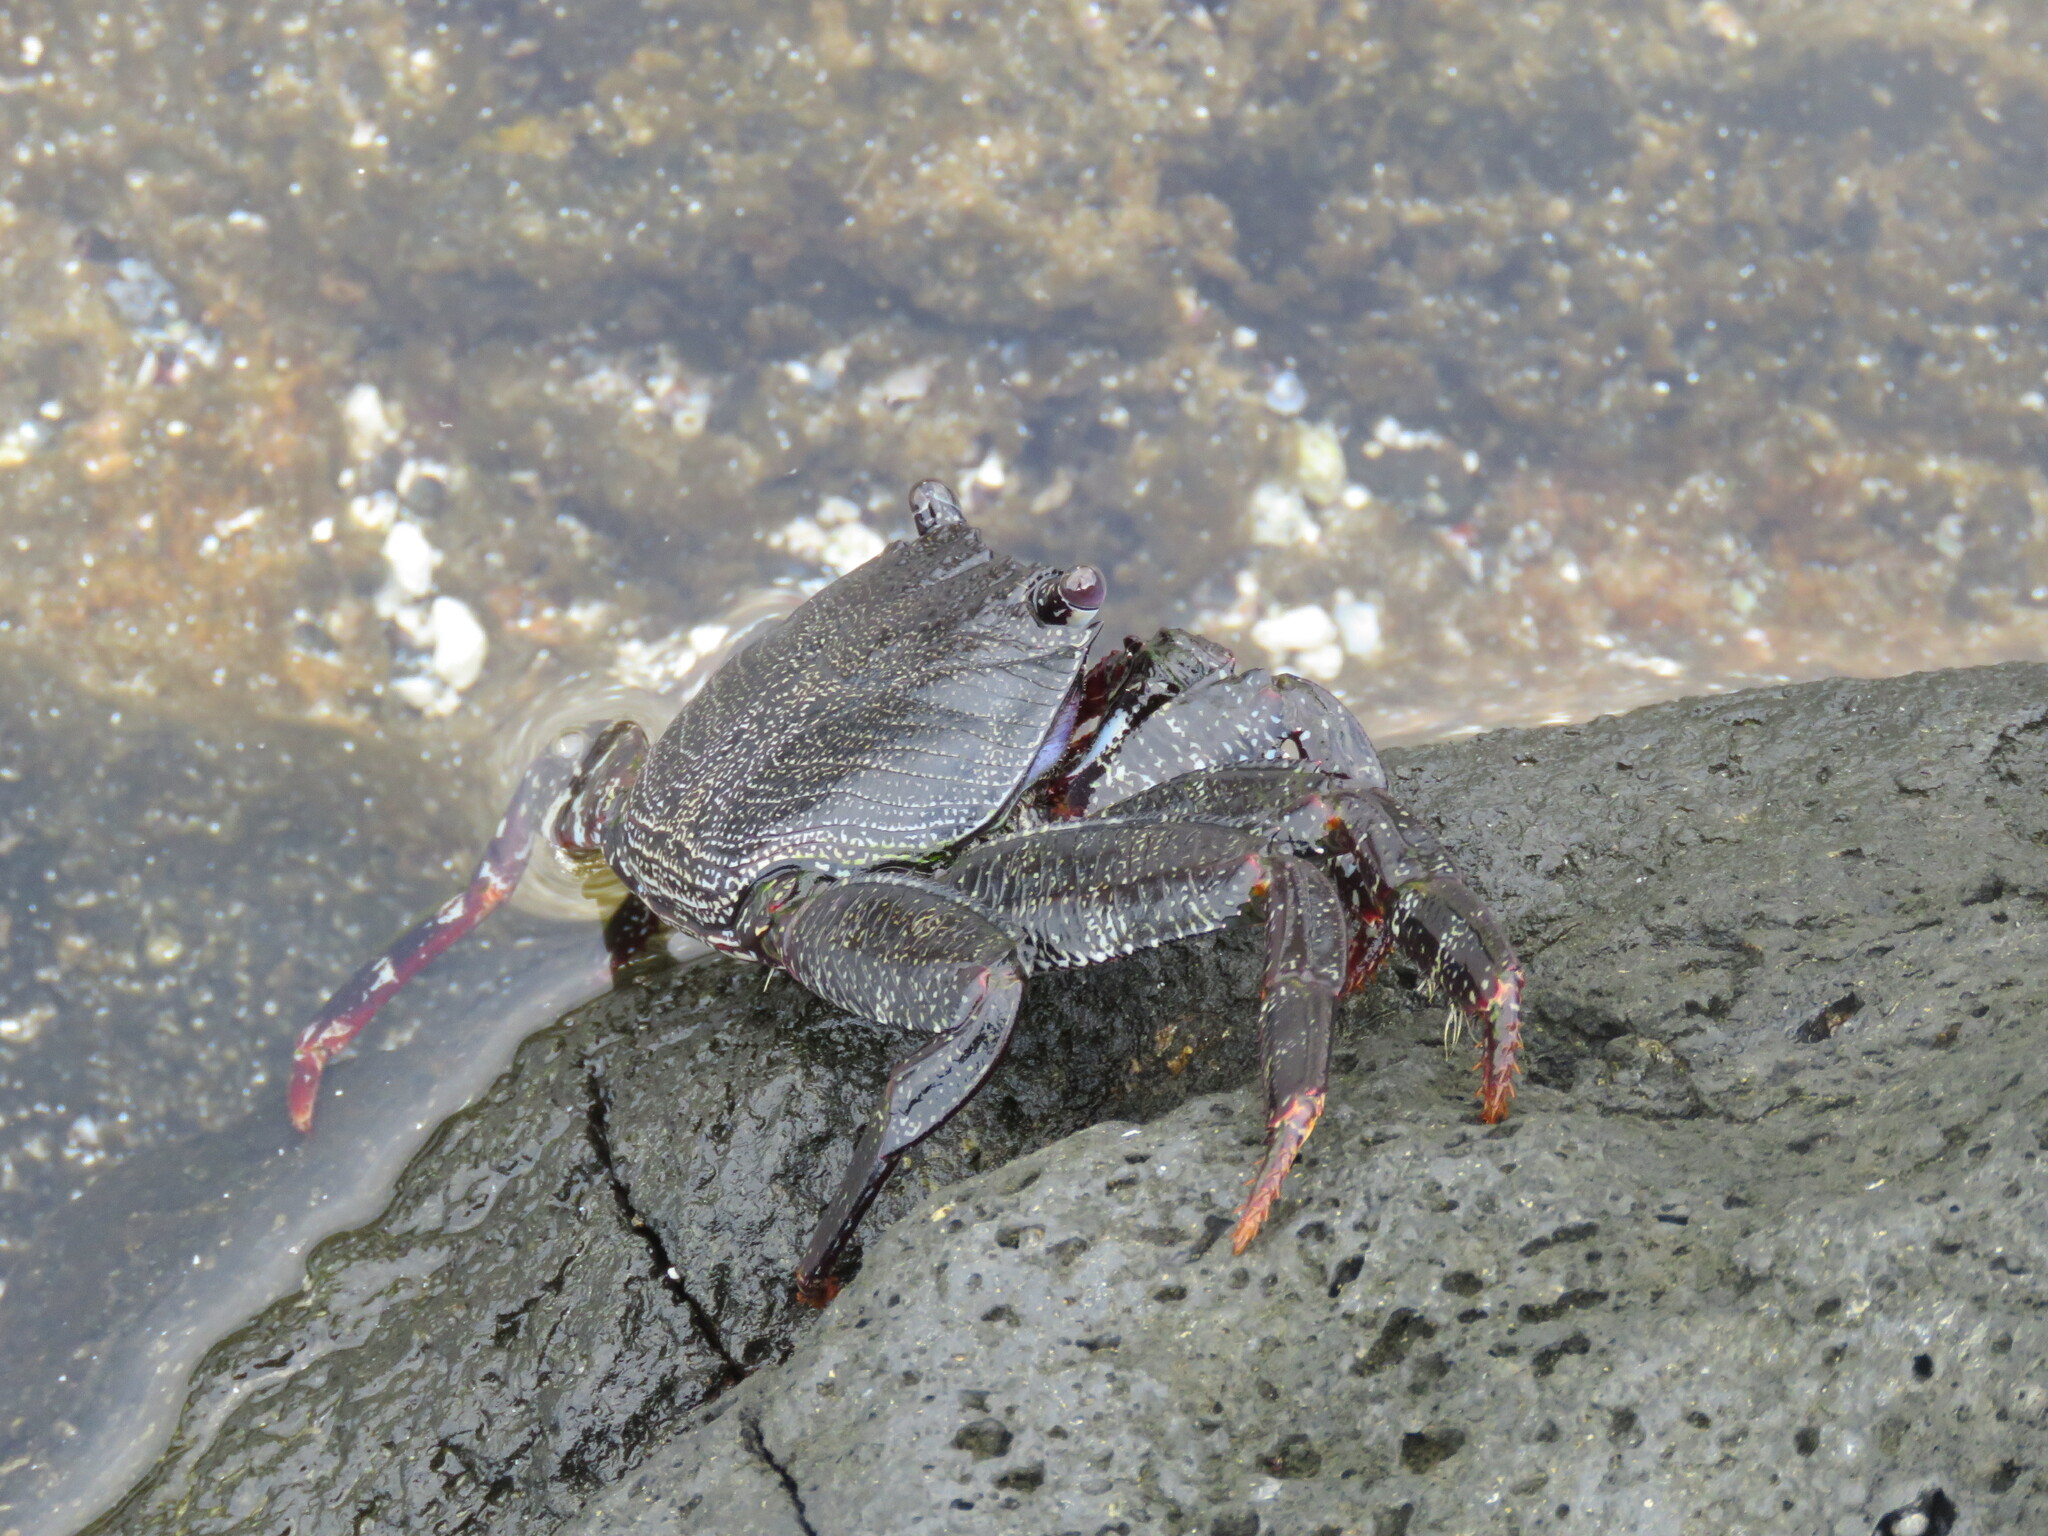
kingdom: Animalia
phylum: Arthropoda
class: Malacostraca
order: Decapoda
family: Grapsidae
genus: Grapsus
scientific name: Grapsus adscensionis
